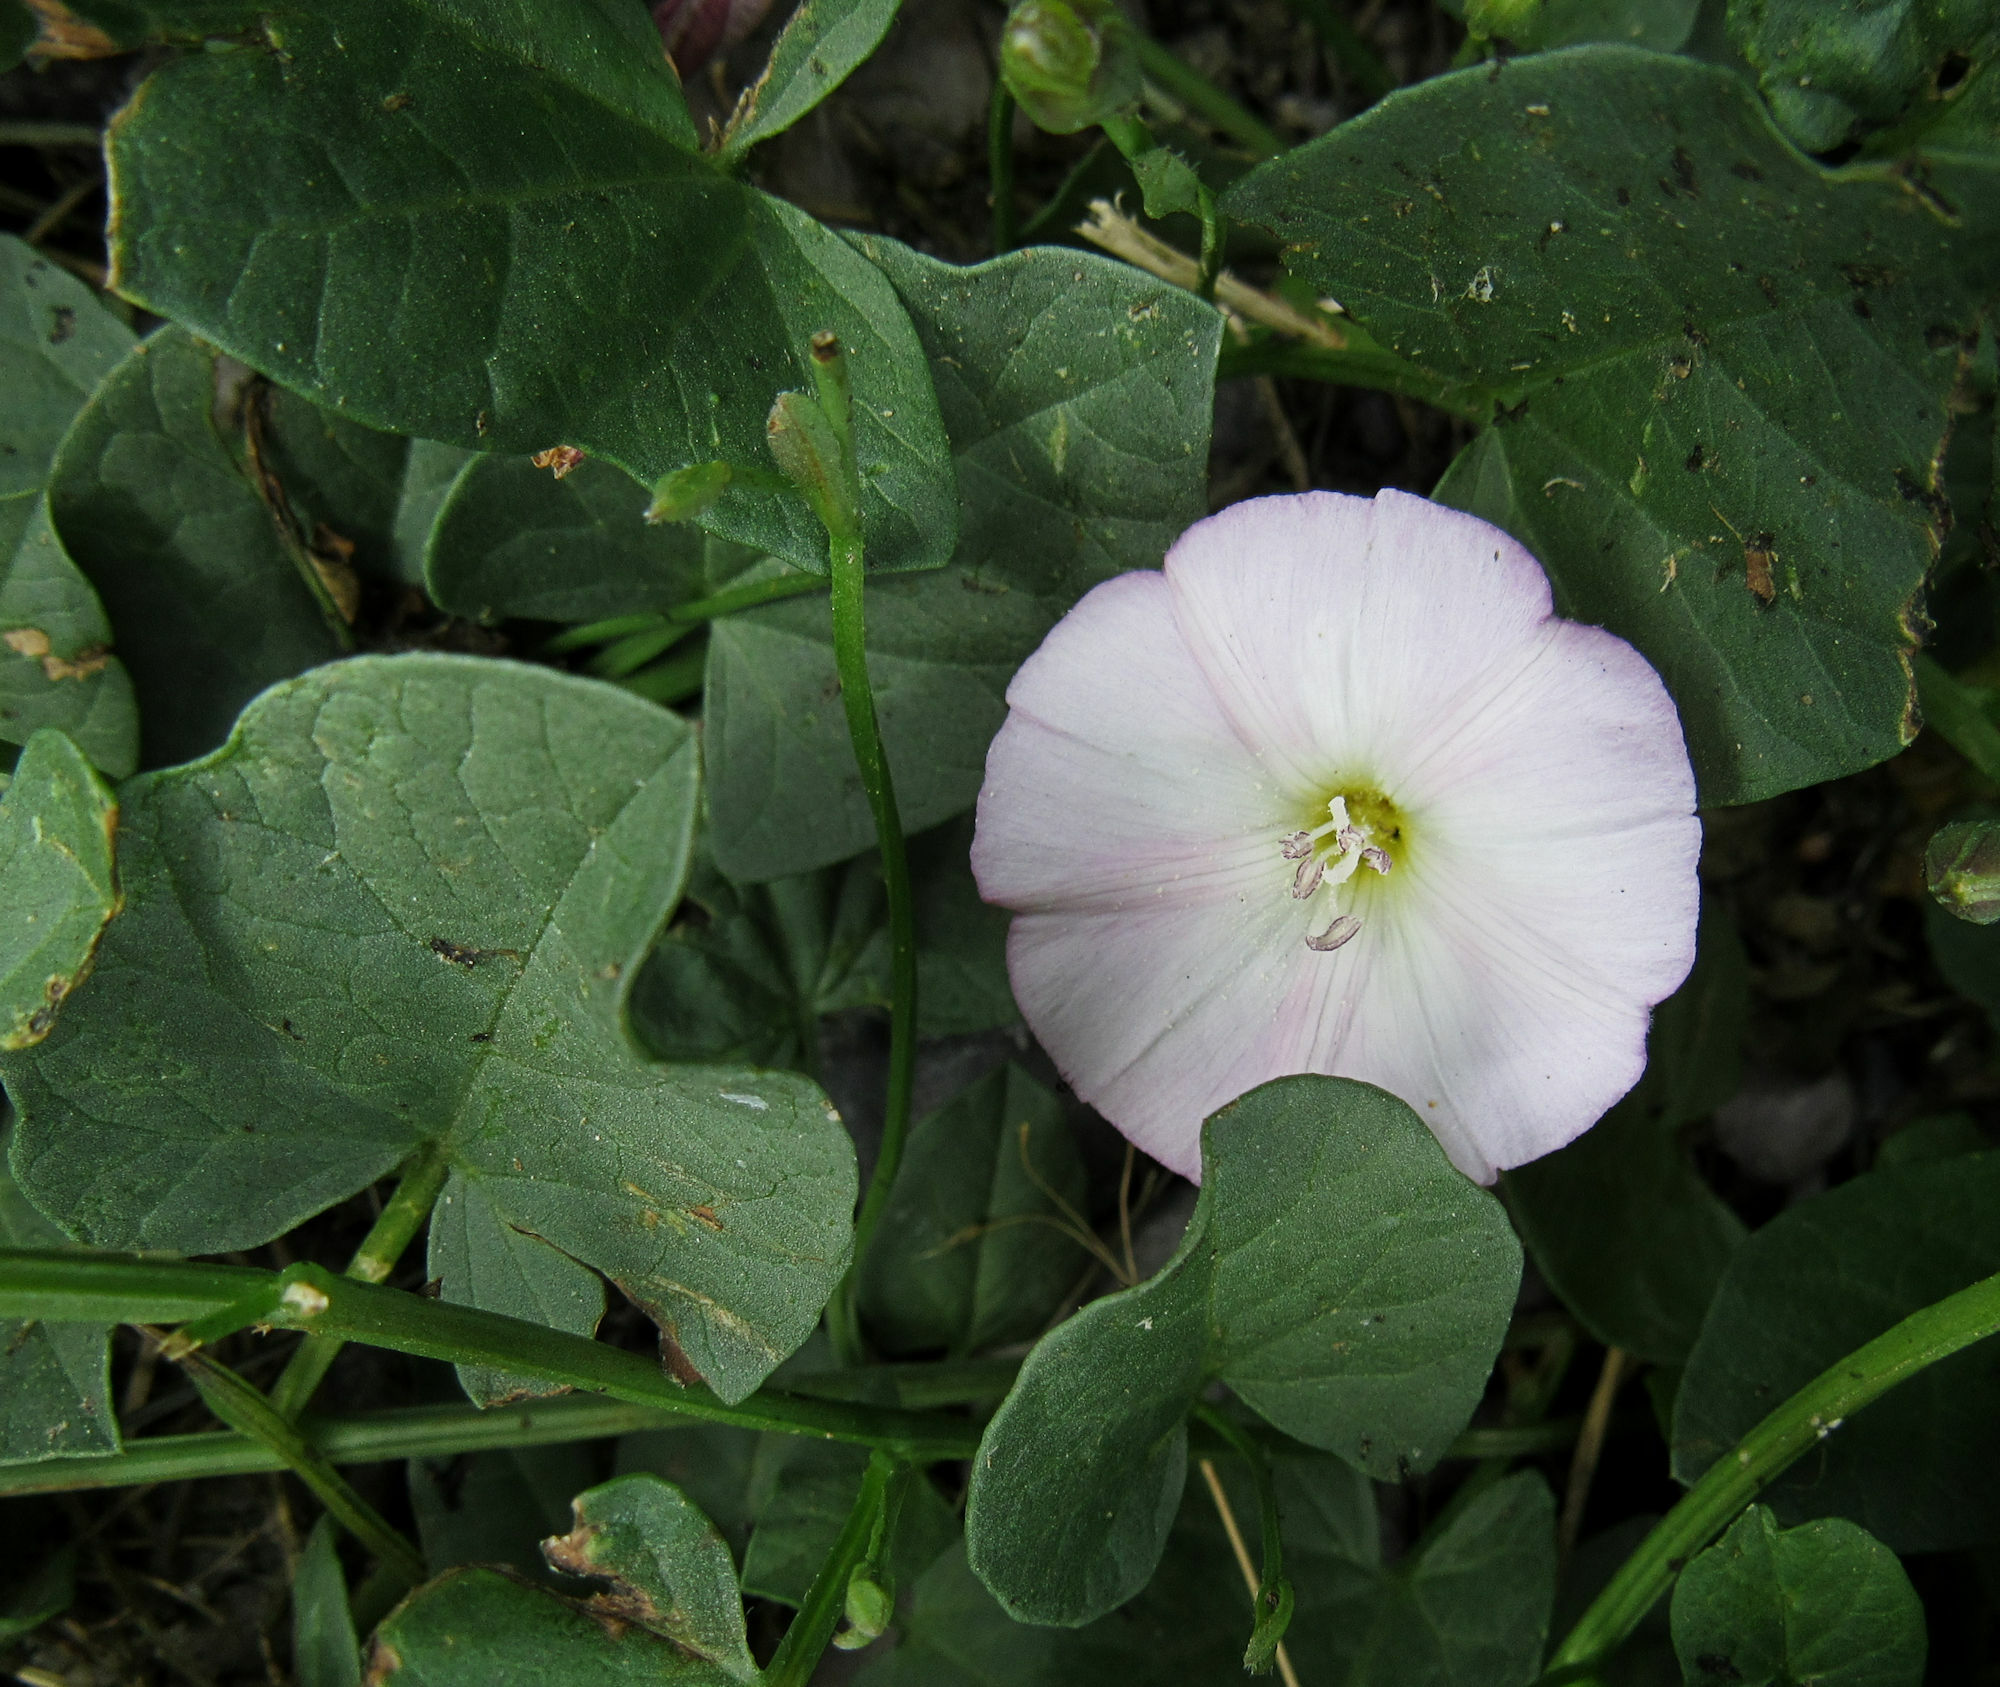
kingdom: Plantae
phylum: Tracheophyta
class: Magnoliopsida
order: Solanales
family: Convolvulaceae
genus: Convolvulus
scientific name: Convolvulus arvensis
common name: Field bindweed
